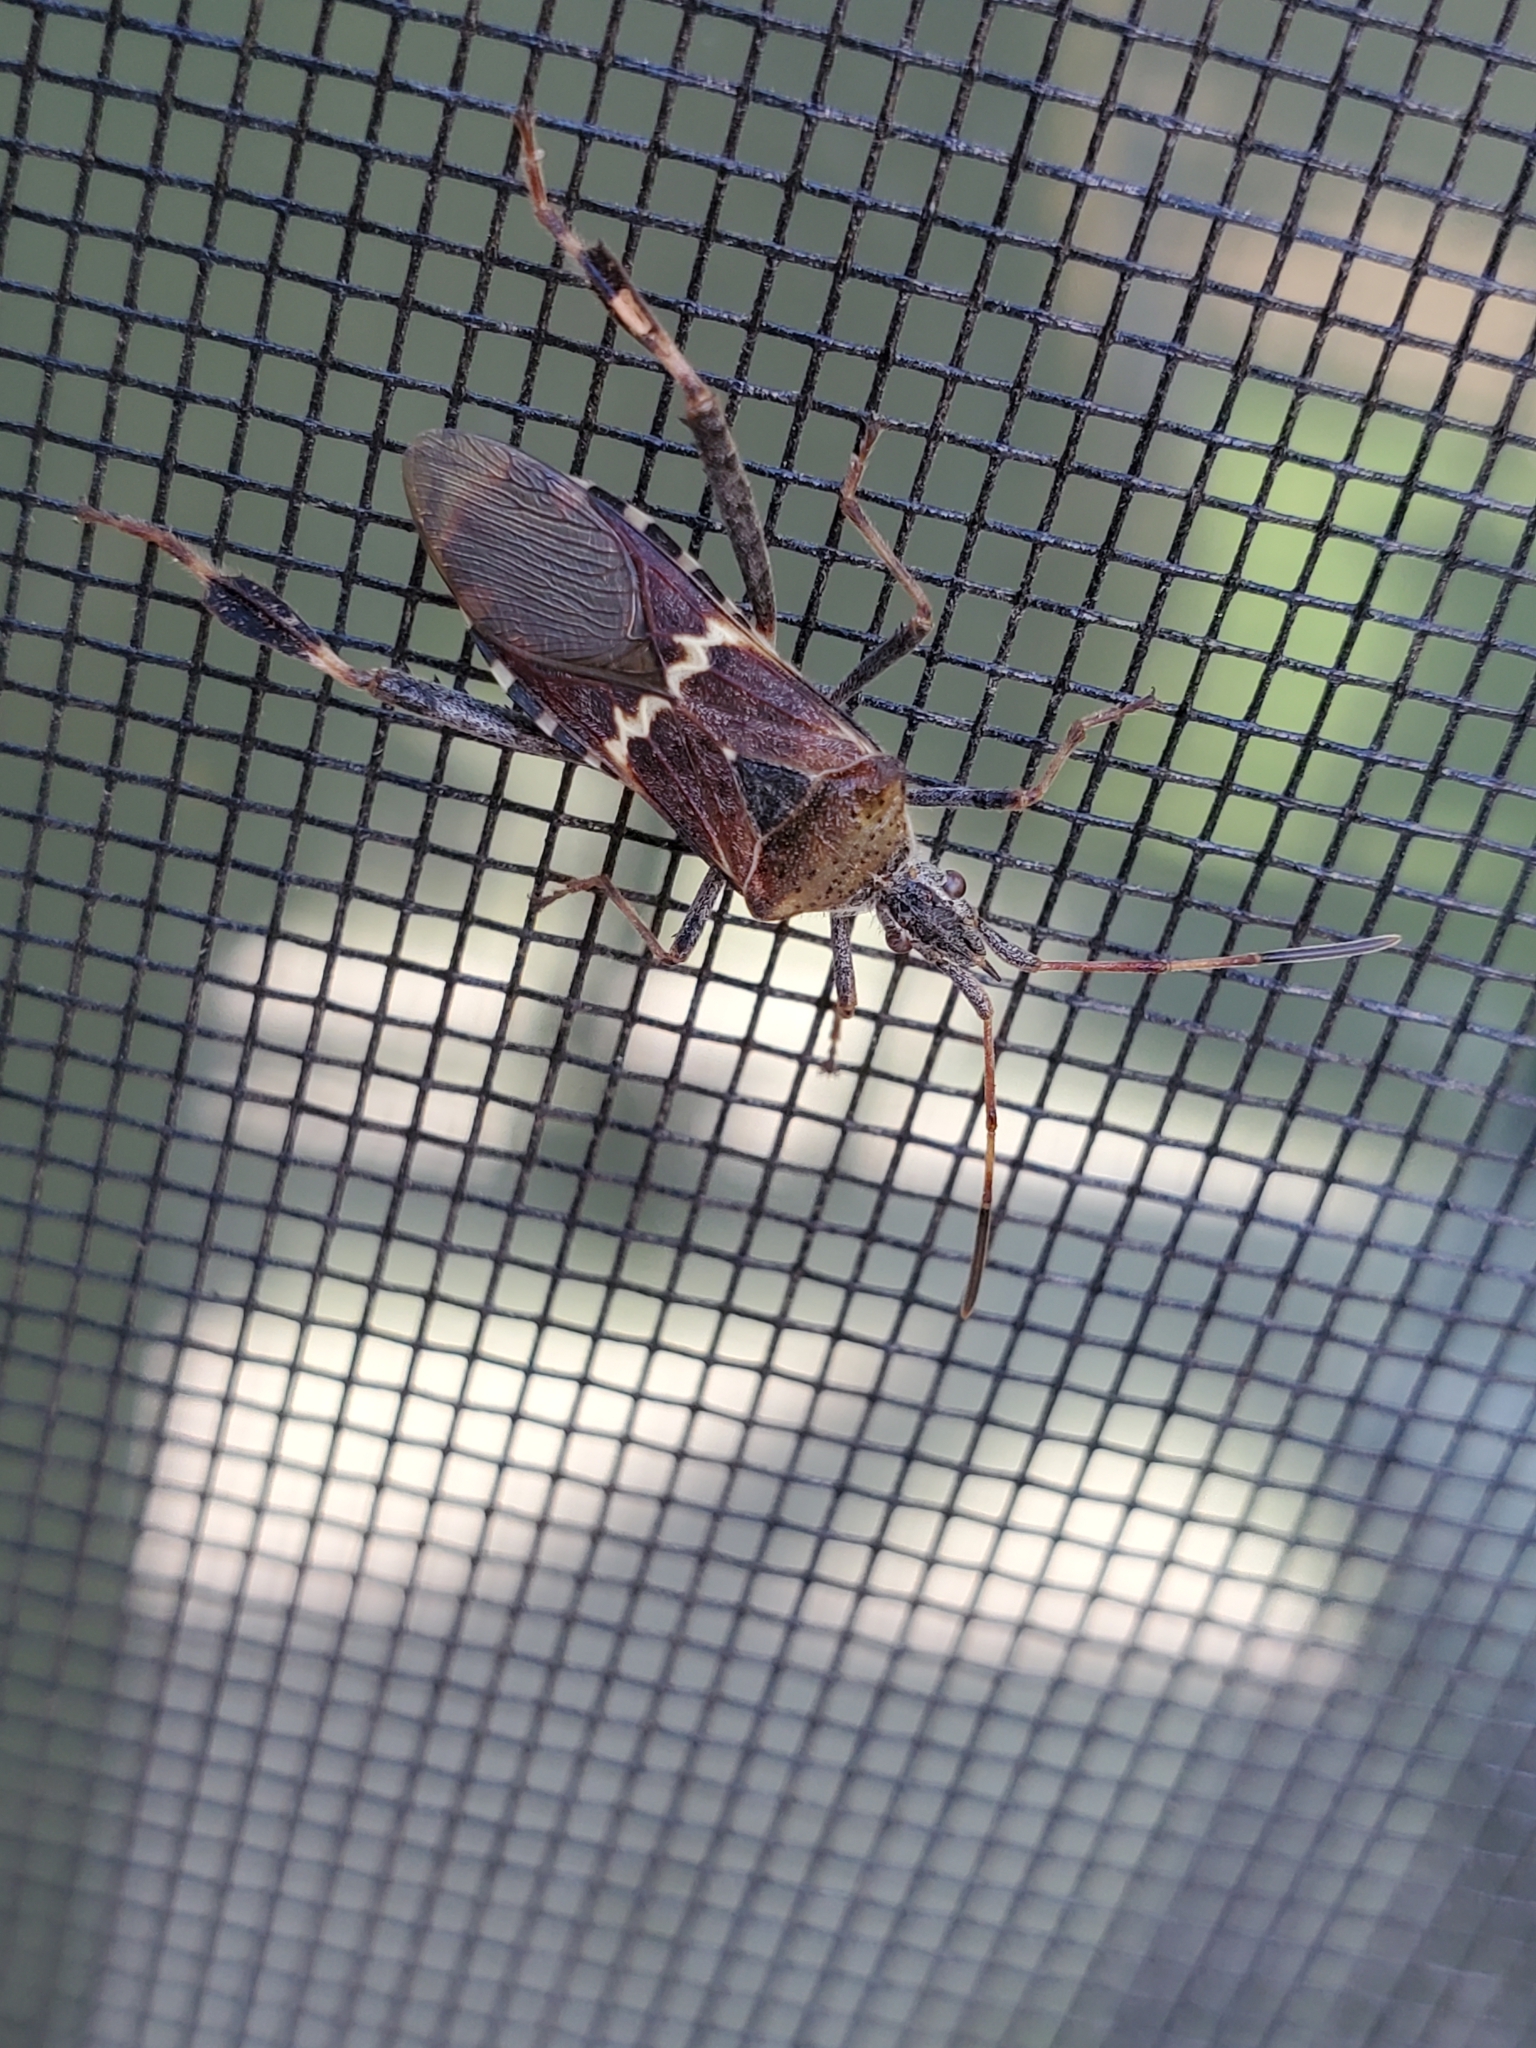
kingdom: Animalia
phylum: Arthropoda
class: Insecta
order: Hemiptera
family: Coreidae
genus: Leptoglossus
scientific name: Leptoglossus clypealis
